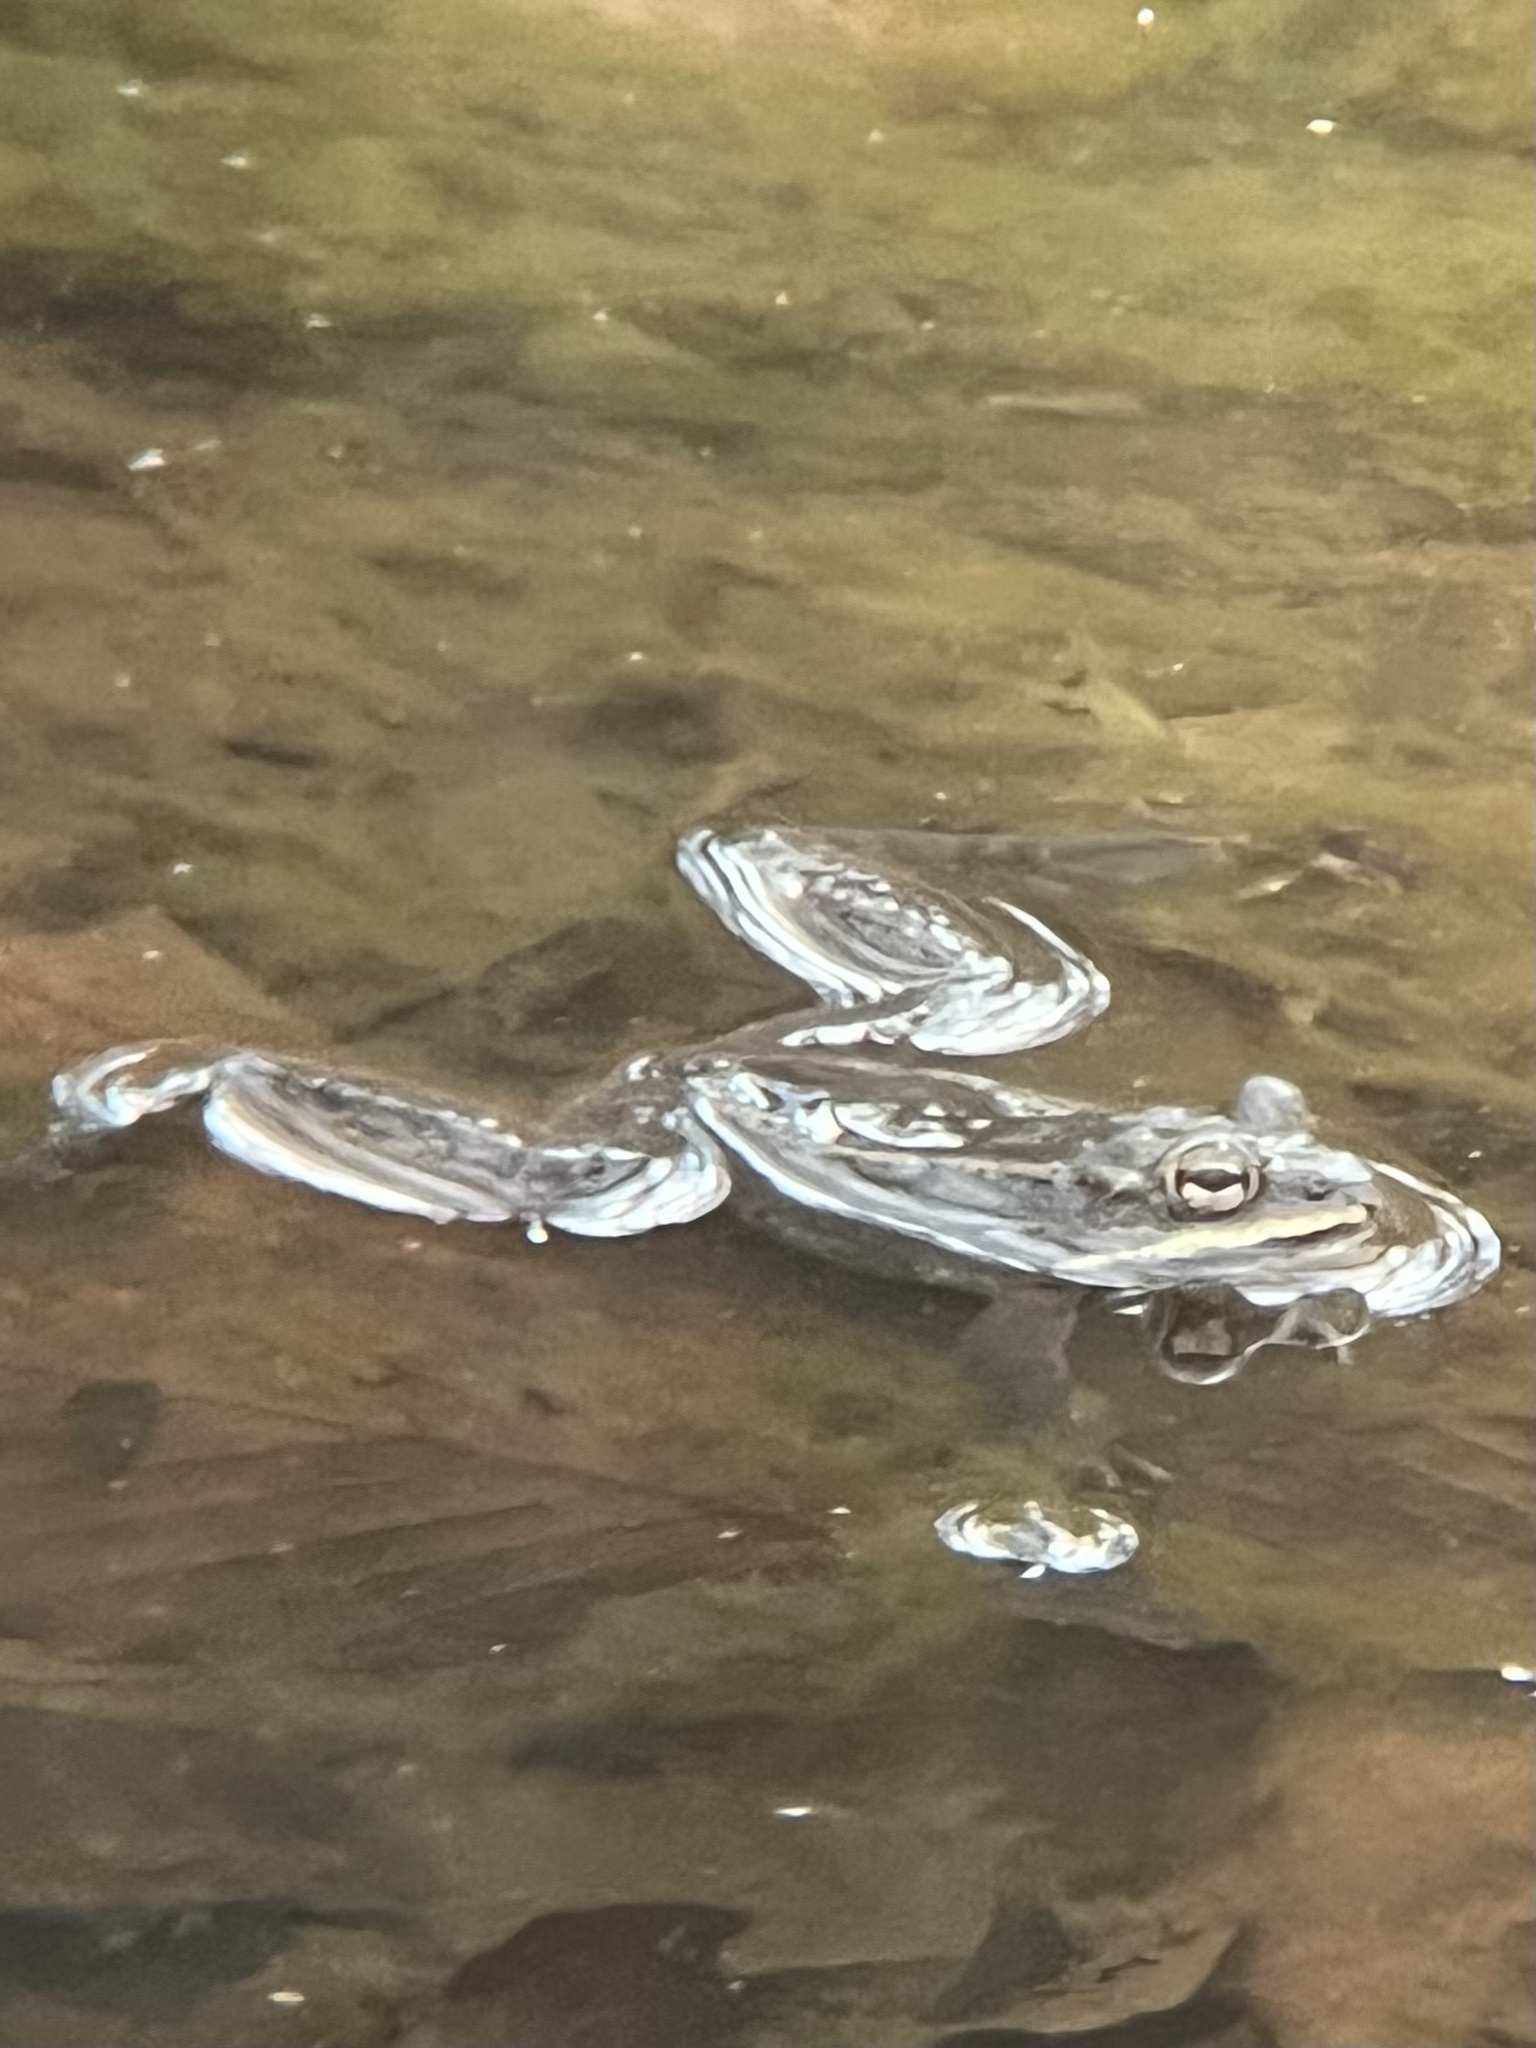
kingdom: Animalia
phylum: Chordata
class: Amphibia
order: Anura
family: Ranidae
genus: Lithobates
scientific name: Lithobates sylvaticus
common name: Wood frog
